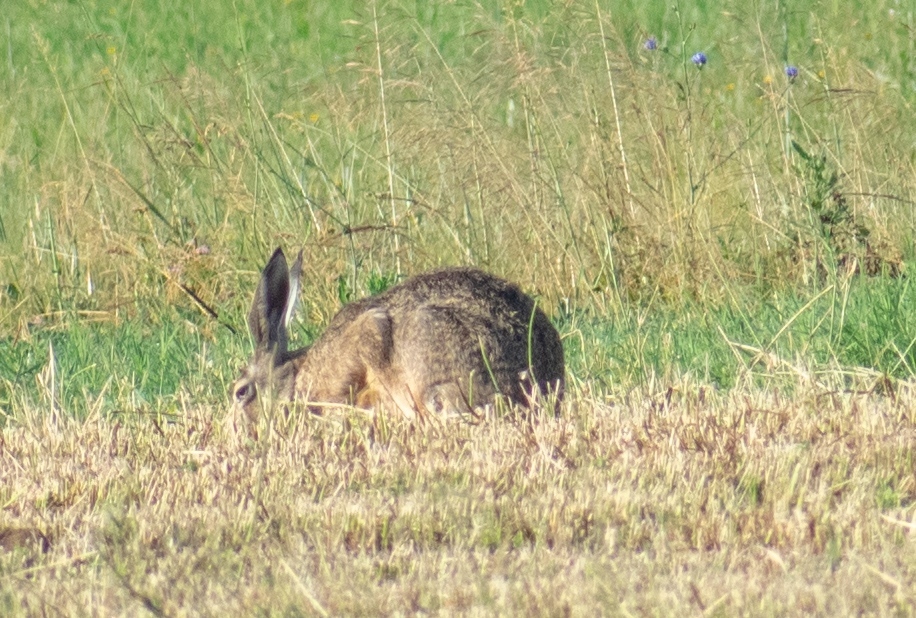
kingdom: Animalia
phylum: Chordata
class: Mammalia
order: Lagomorpha
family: Leporidae
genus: Lepus
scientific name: Lepus europaeus
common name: European hare
